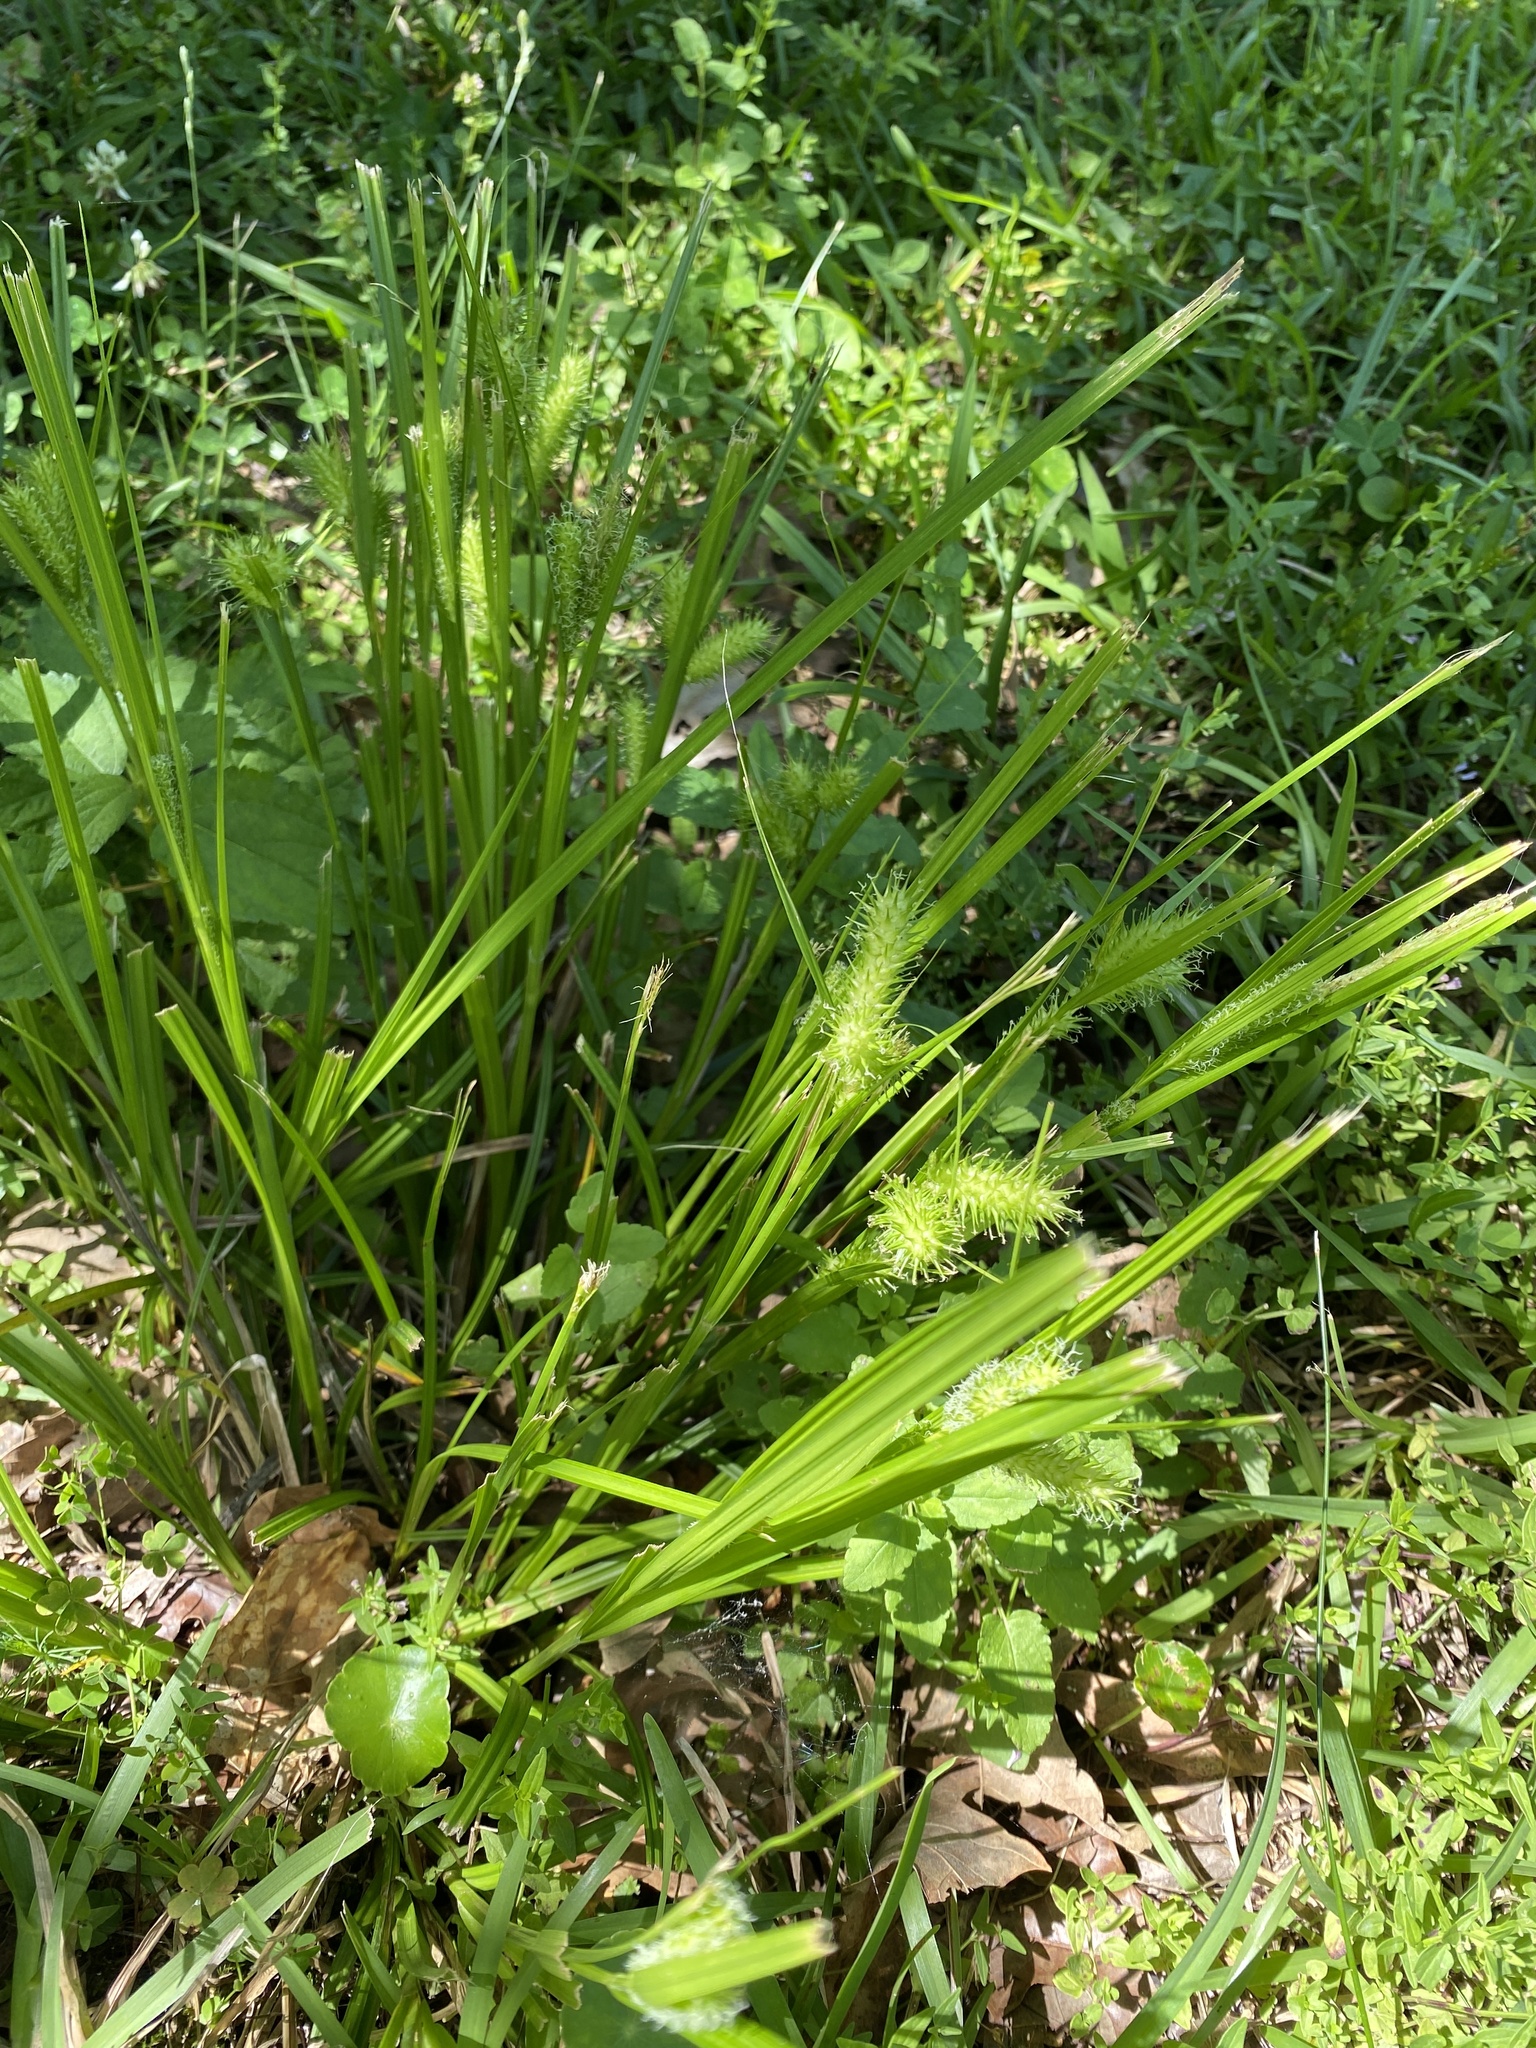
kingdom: Plantae
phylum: Tracheophyta
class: Liliopsida
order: Poales
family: Cyperaceae
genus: Carex
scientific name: Carex lurida
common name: Sallow sedge
